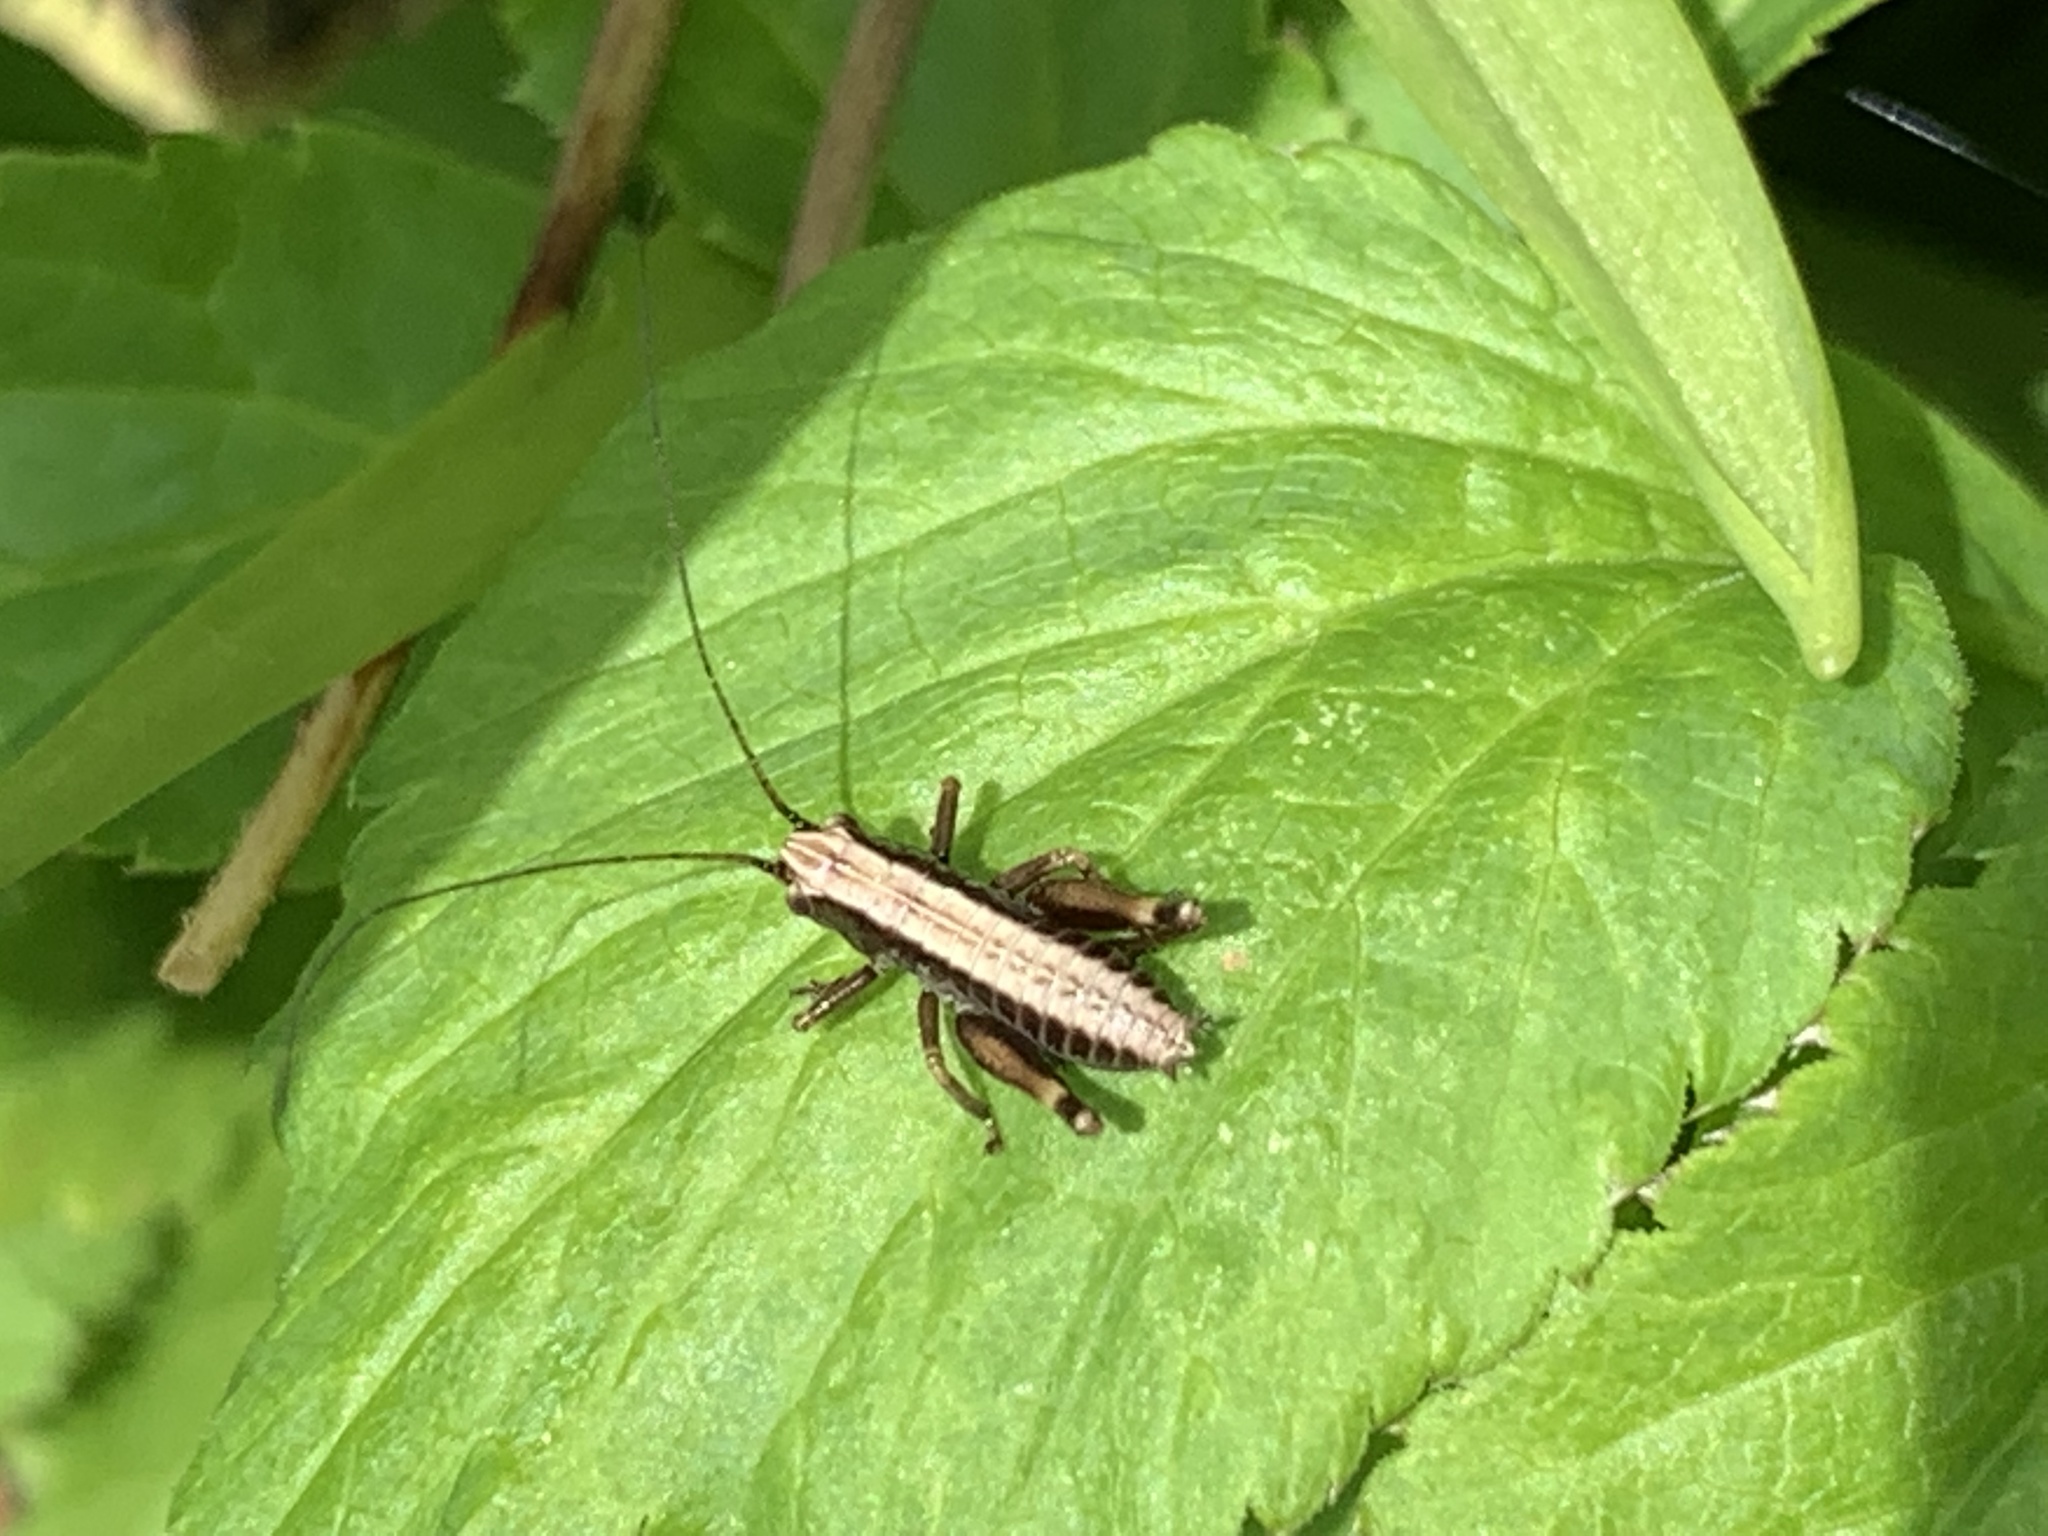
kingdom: Animalia
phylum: Arthropoda
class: Insecta
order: Orthoptera
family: Tettigoniidae
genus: Pholidoptera
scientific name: Pholidoptera griseoaptera
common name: Dark bush-cricket
